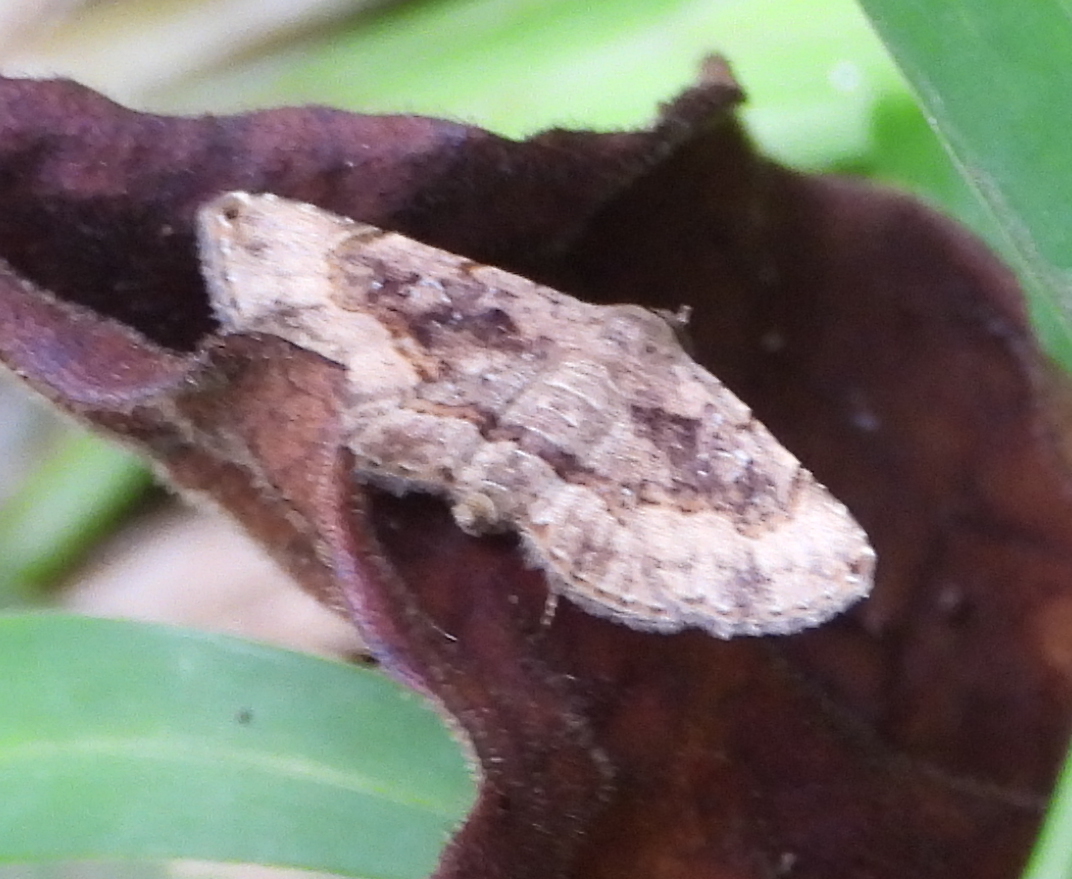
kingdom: Animalia
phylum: Arthropoda
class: Insecta
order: Lepidoptera
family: Erebidae
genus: Rhesala
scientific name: Rhesala moestalis
